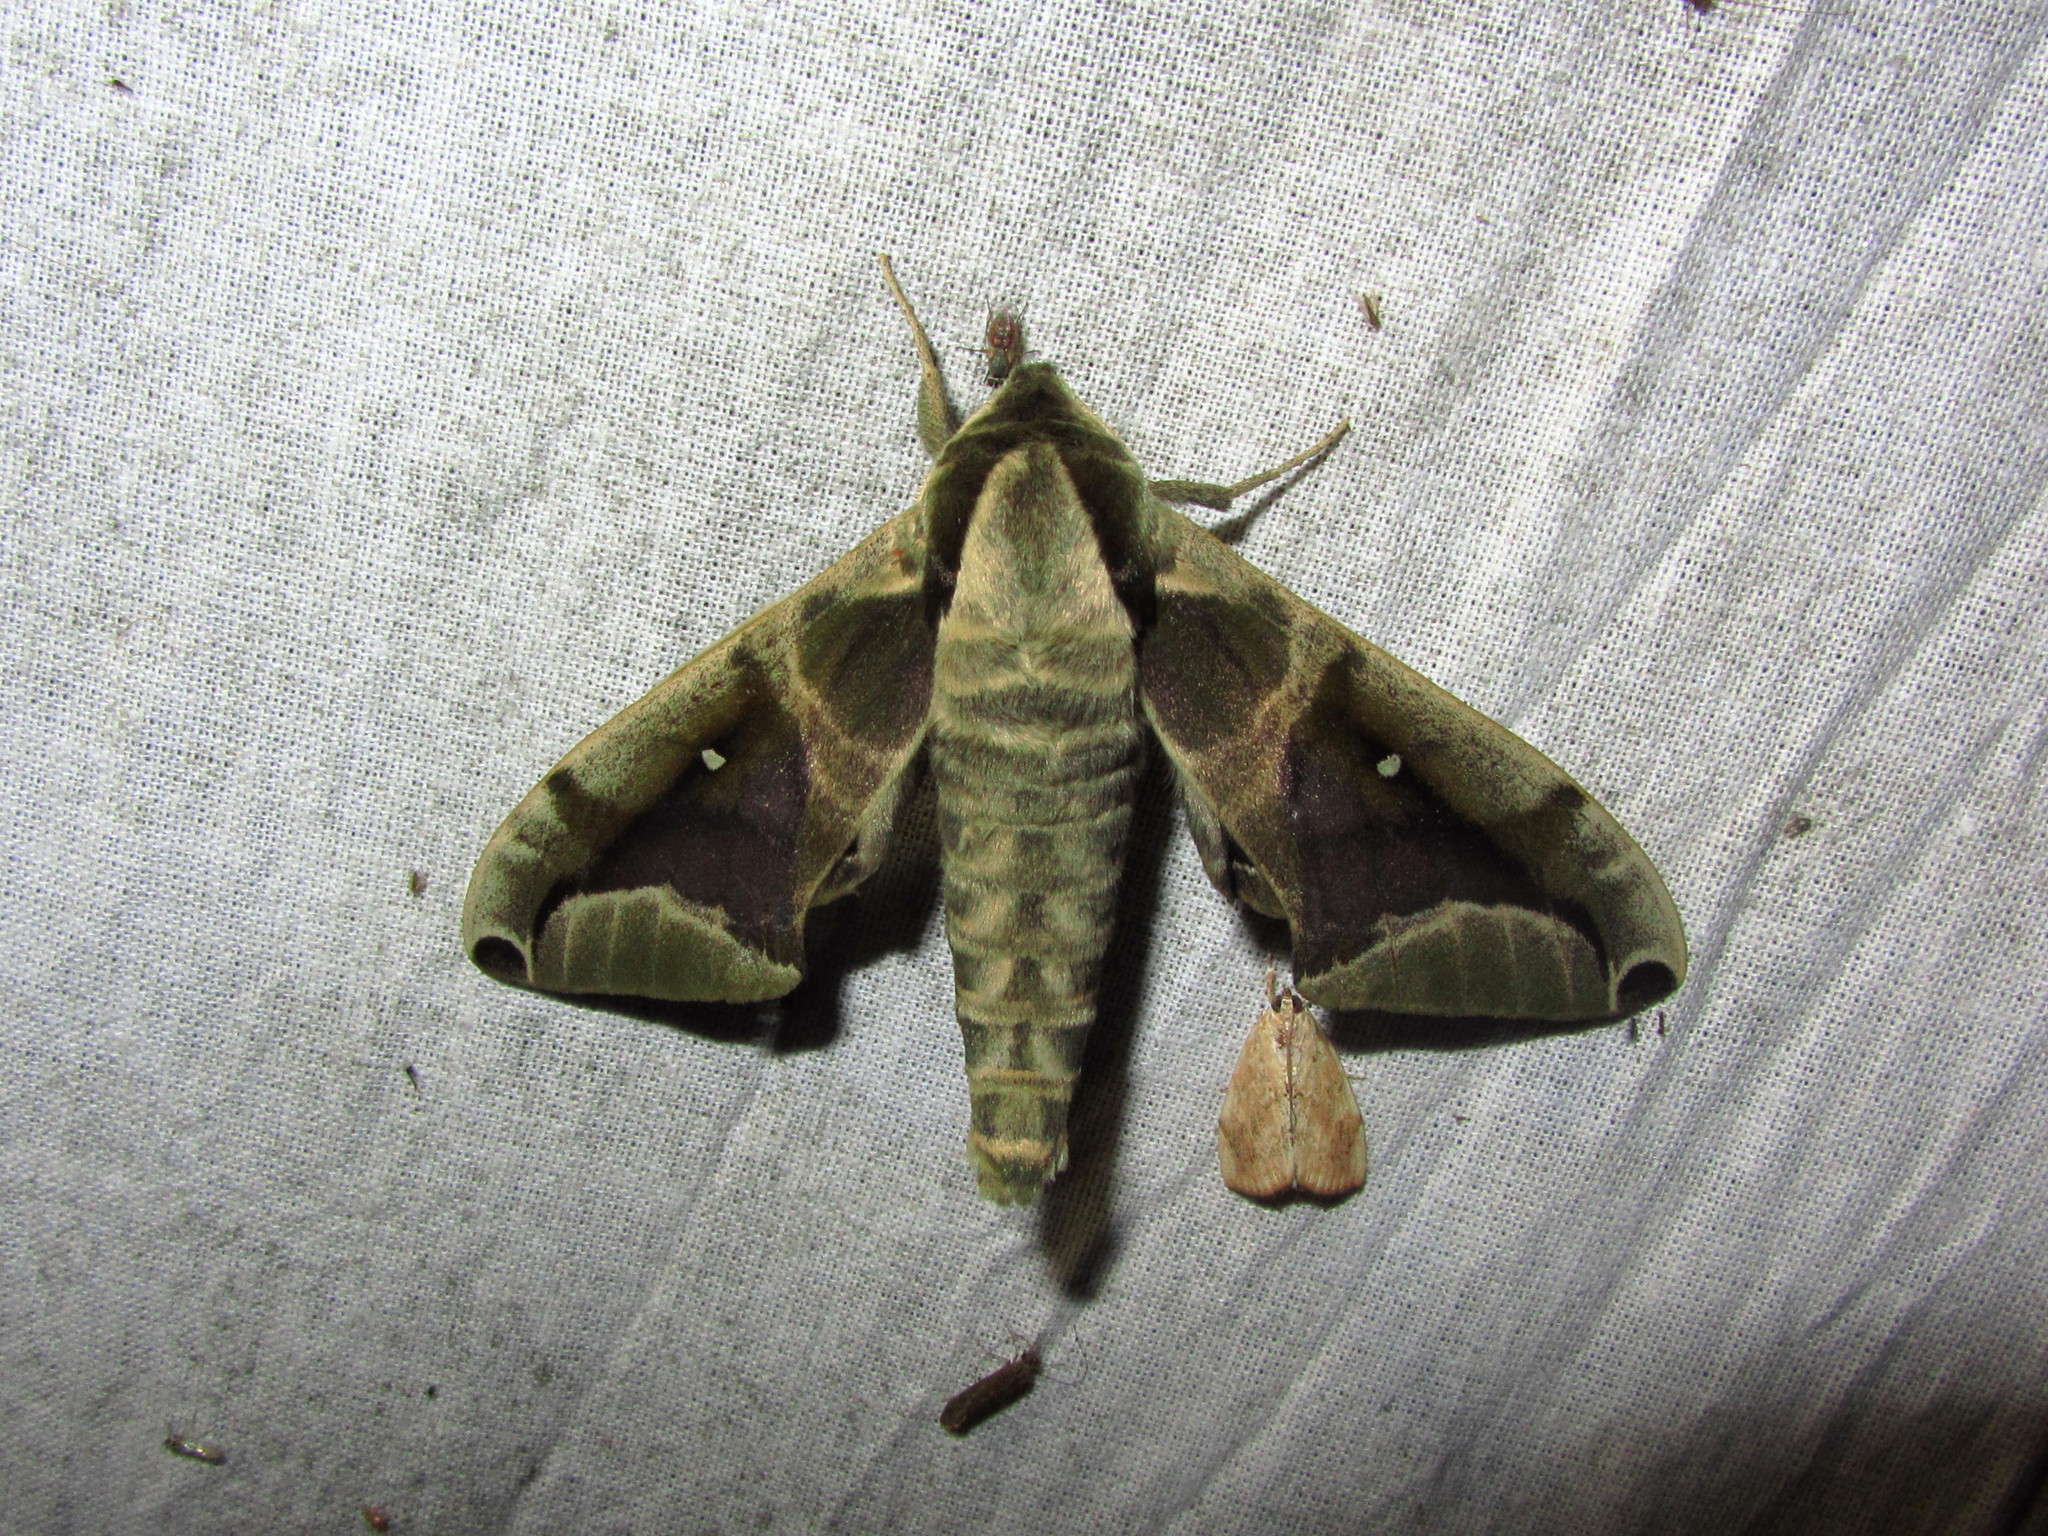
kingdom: Animalia
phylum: Arthropoda
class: Insecta
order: Lepidoptera
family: Sphingidae
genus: Parum
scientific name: Parum colligata
